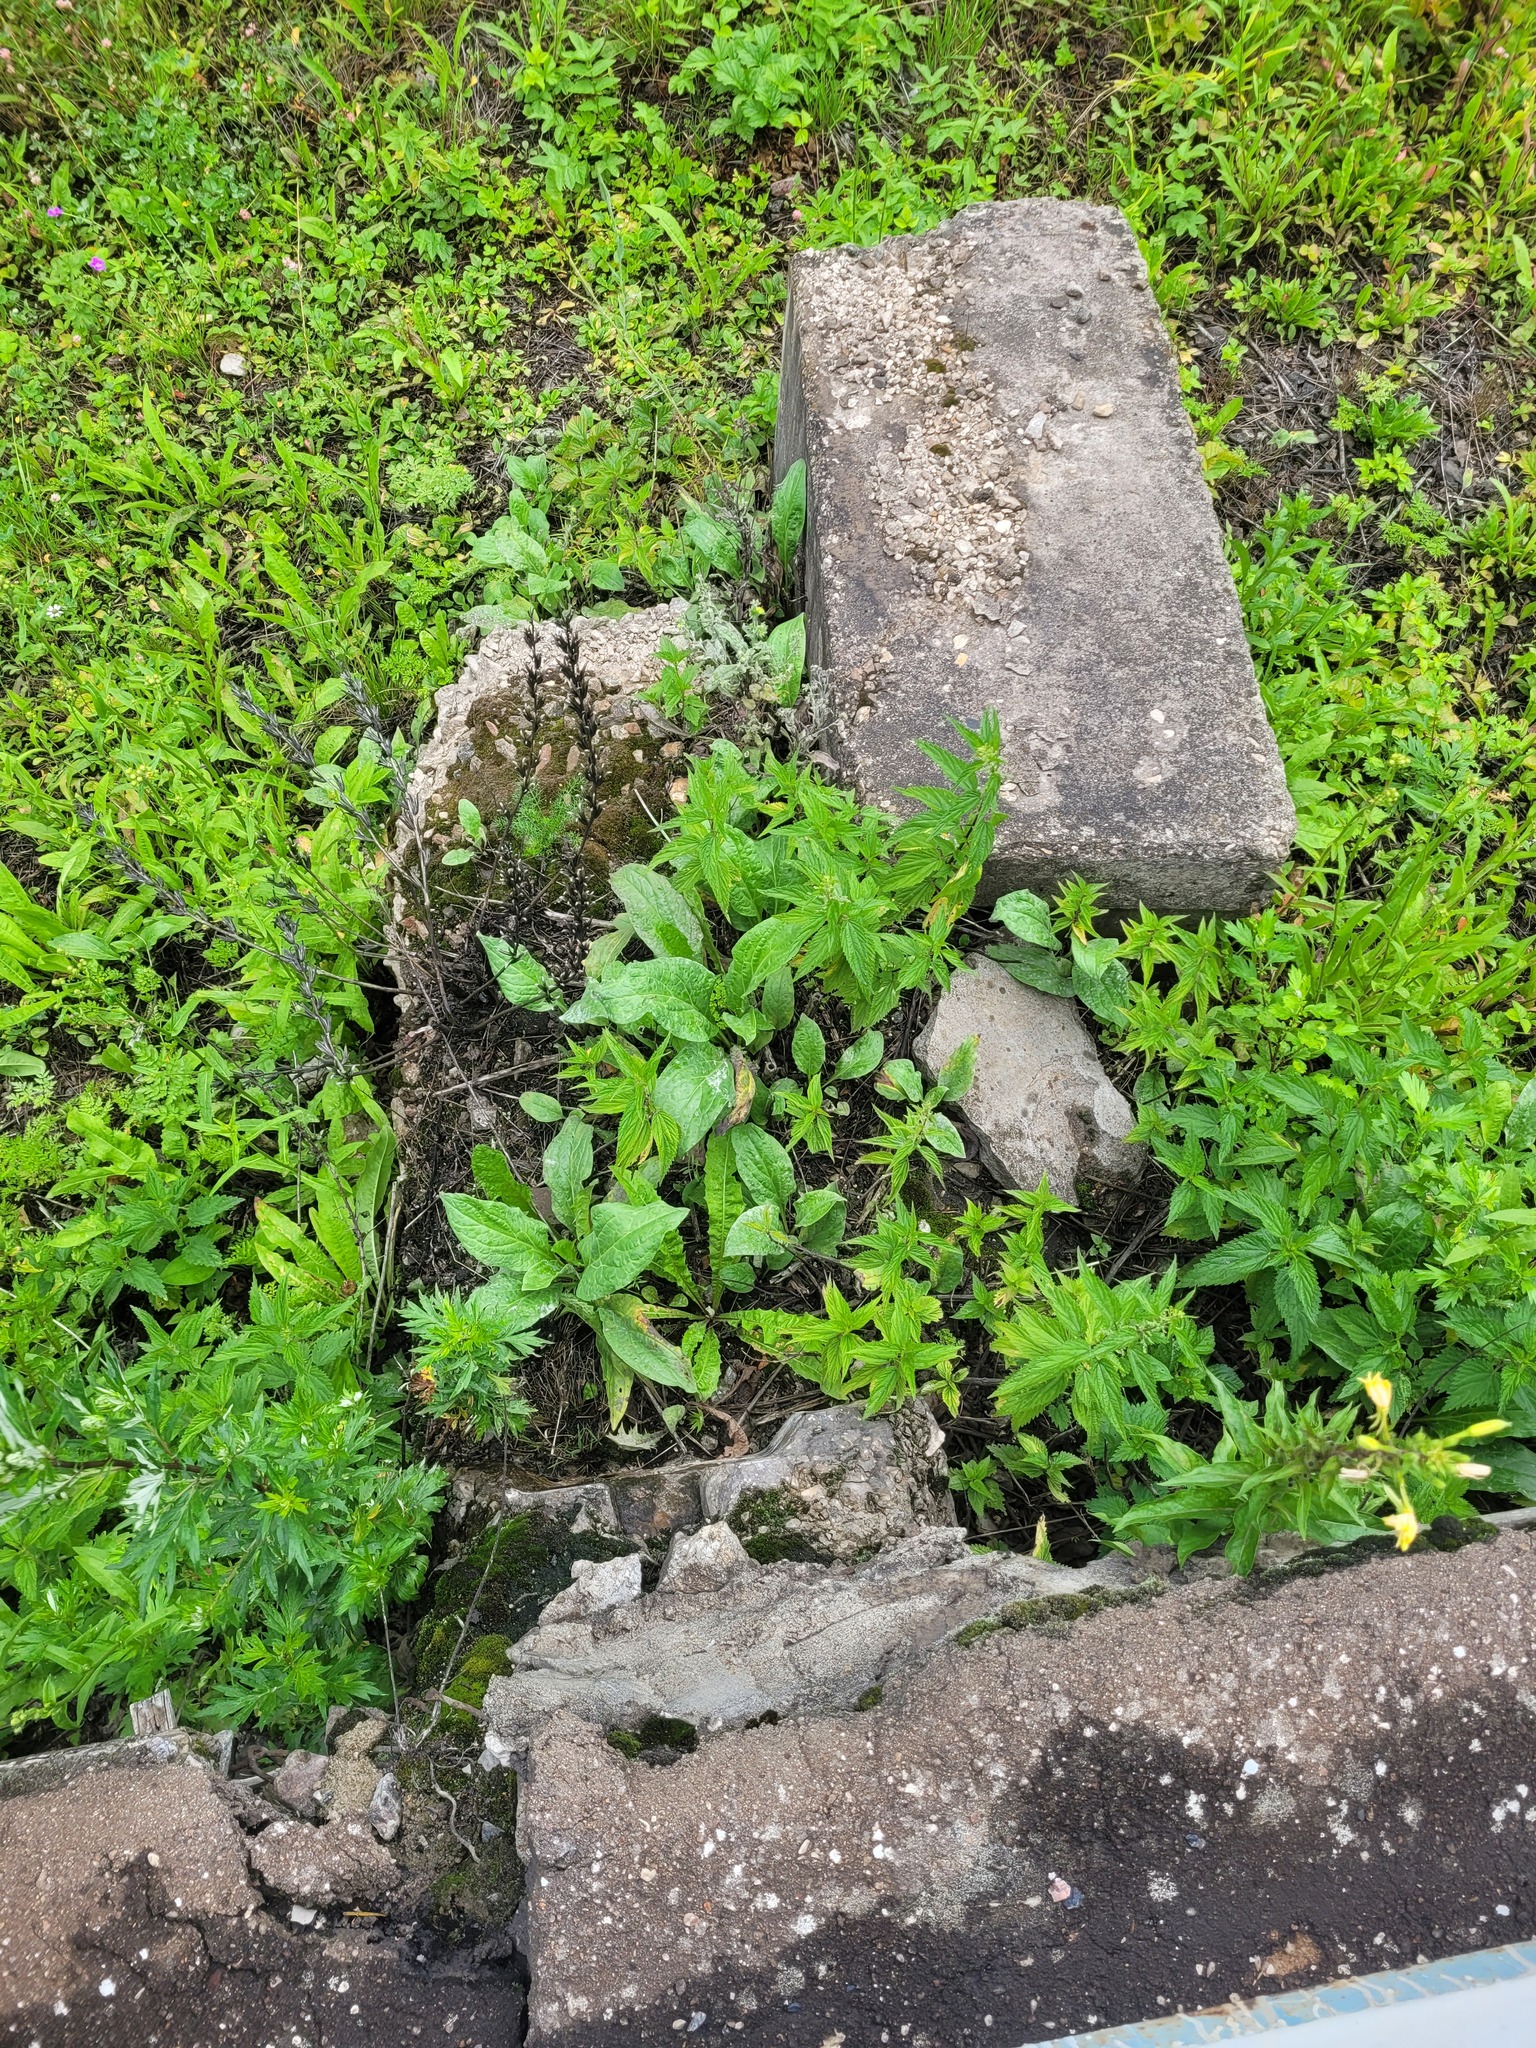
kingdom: Plantae
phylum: Tracheophyta
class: Magnoliopsida
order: Boraginales
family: Boraginaceae
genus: Cynoglossum
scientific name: Cynoglossum officinale
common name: Hound's-tongue
